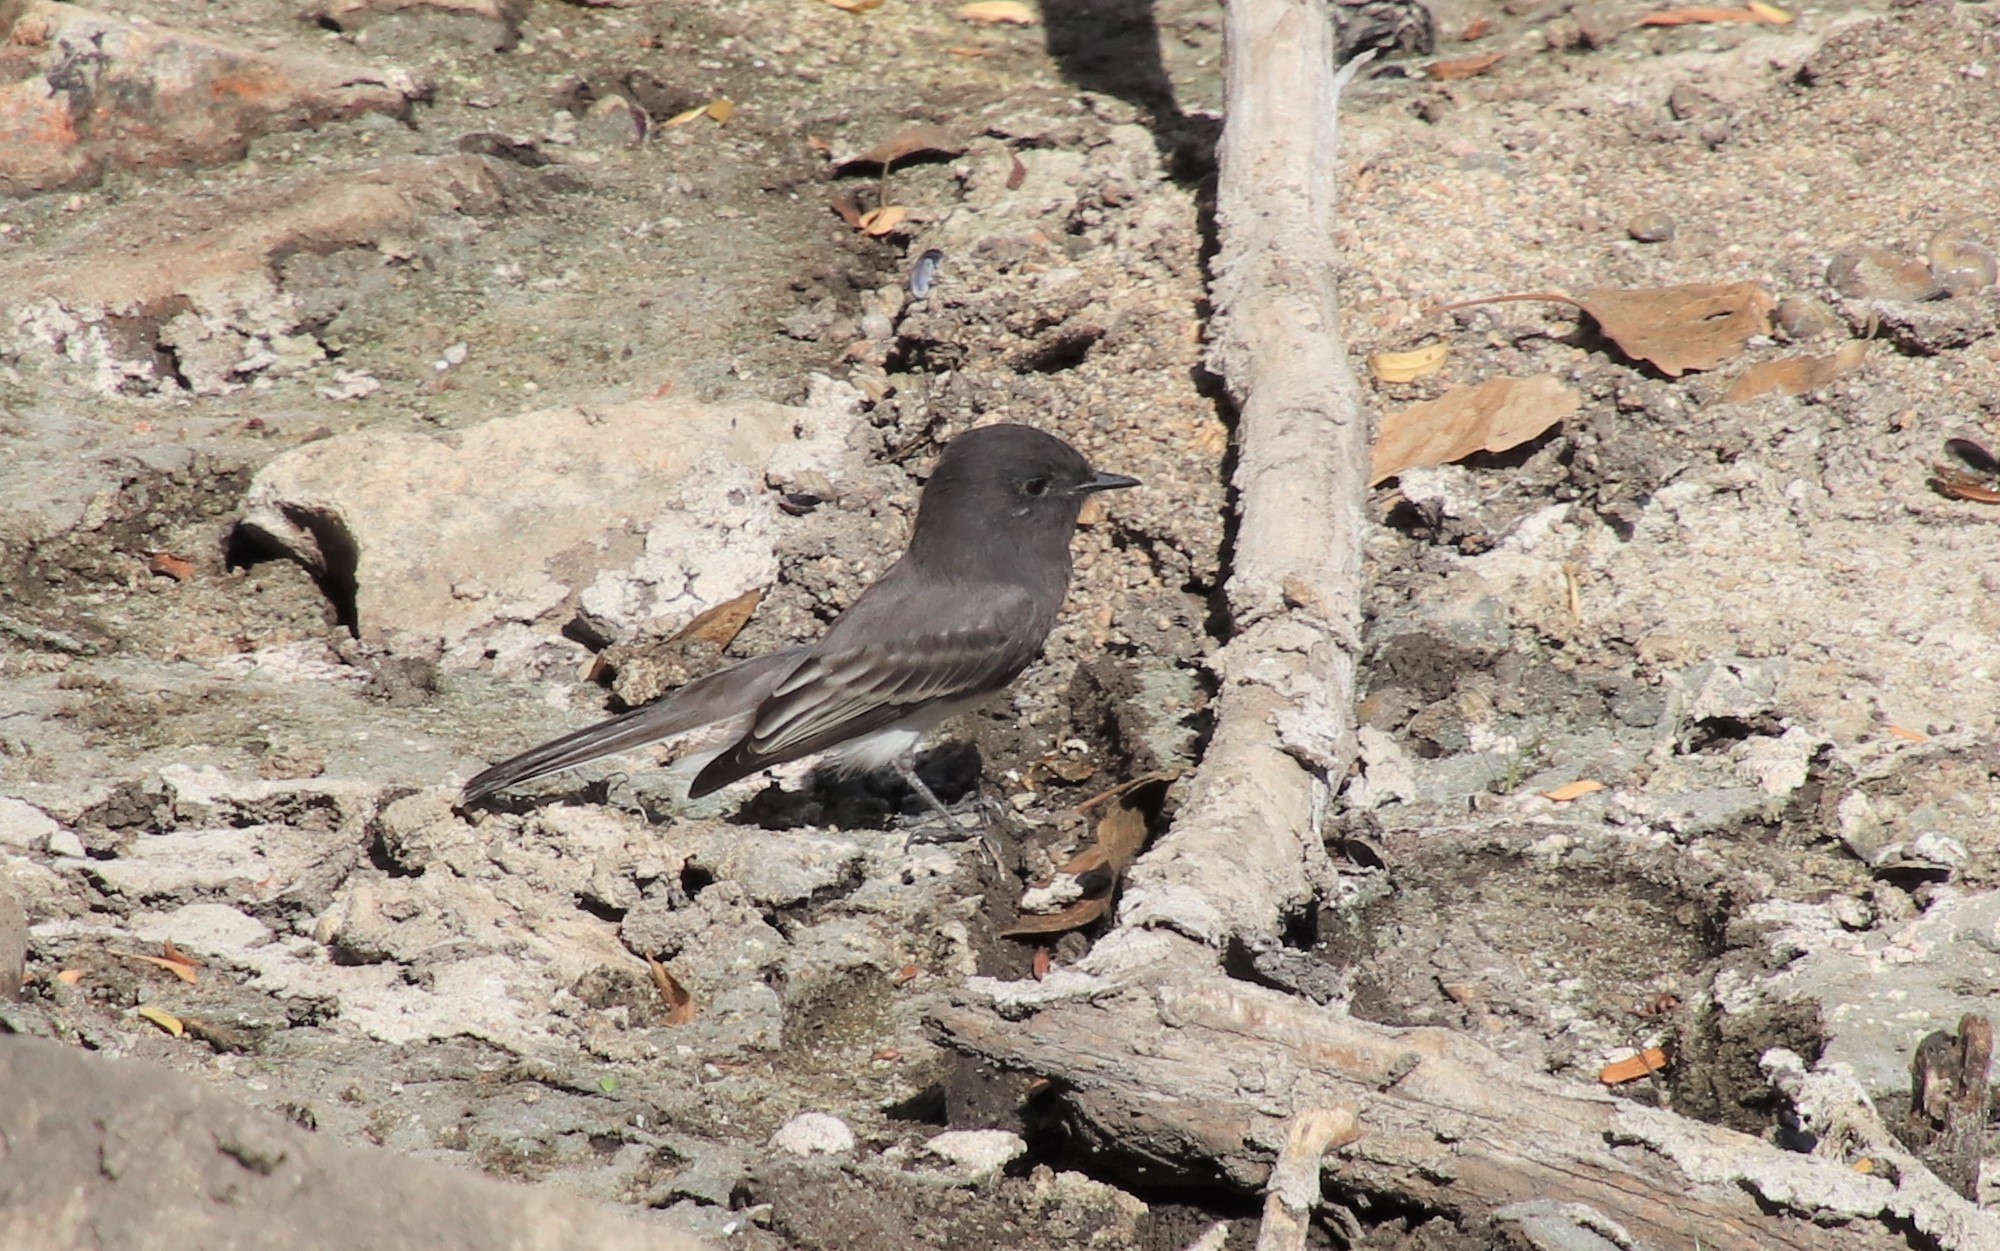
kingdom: Animalia
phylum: Chordata
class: Aves
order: Passeriformes
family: Tyrannidae
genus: Sayornis
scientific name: Sayornis nigricans
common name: Black phoebe
